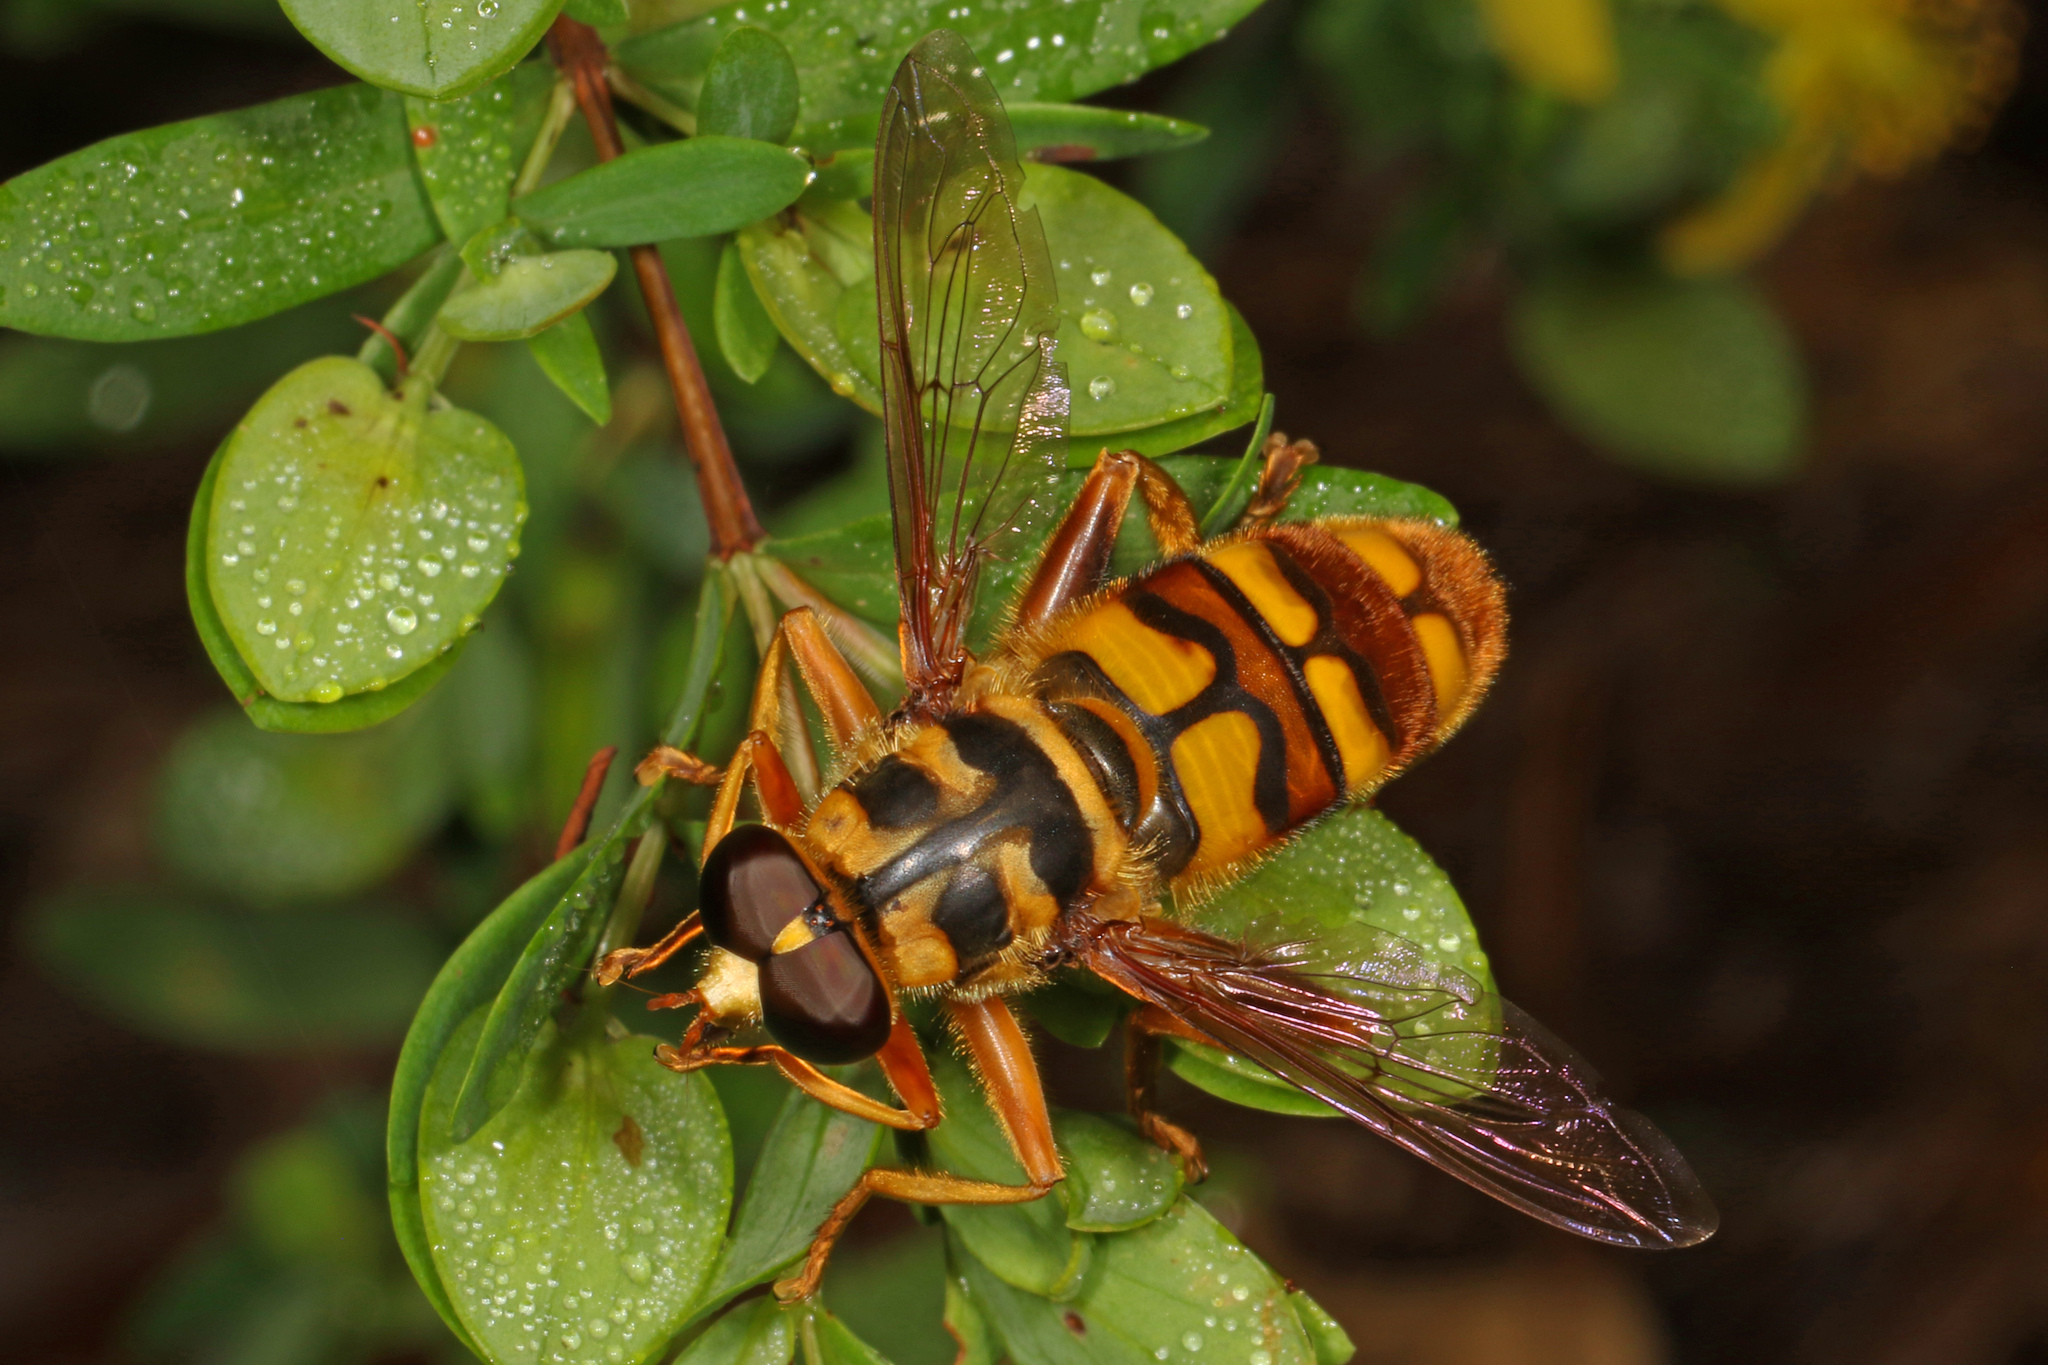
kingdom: Animalia
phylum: Arthropoda
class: Insecta
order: Diptera
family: Syrphidae
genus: Milesia
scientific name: Milesia virginiensis
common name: Virginia giant
